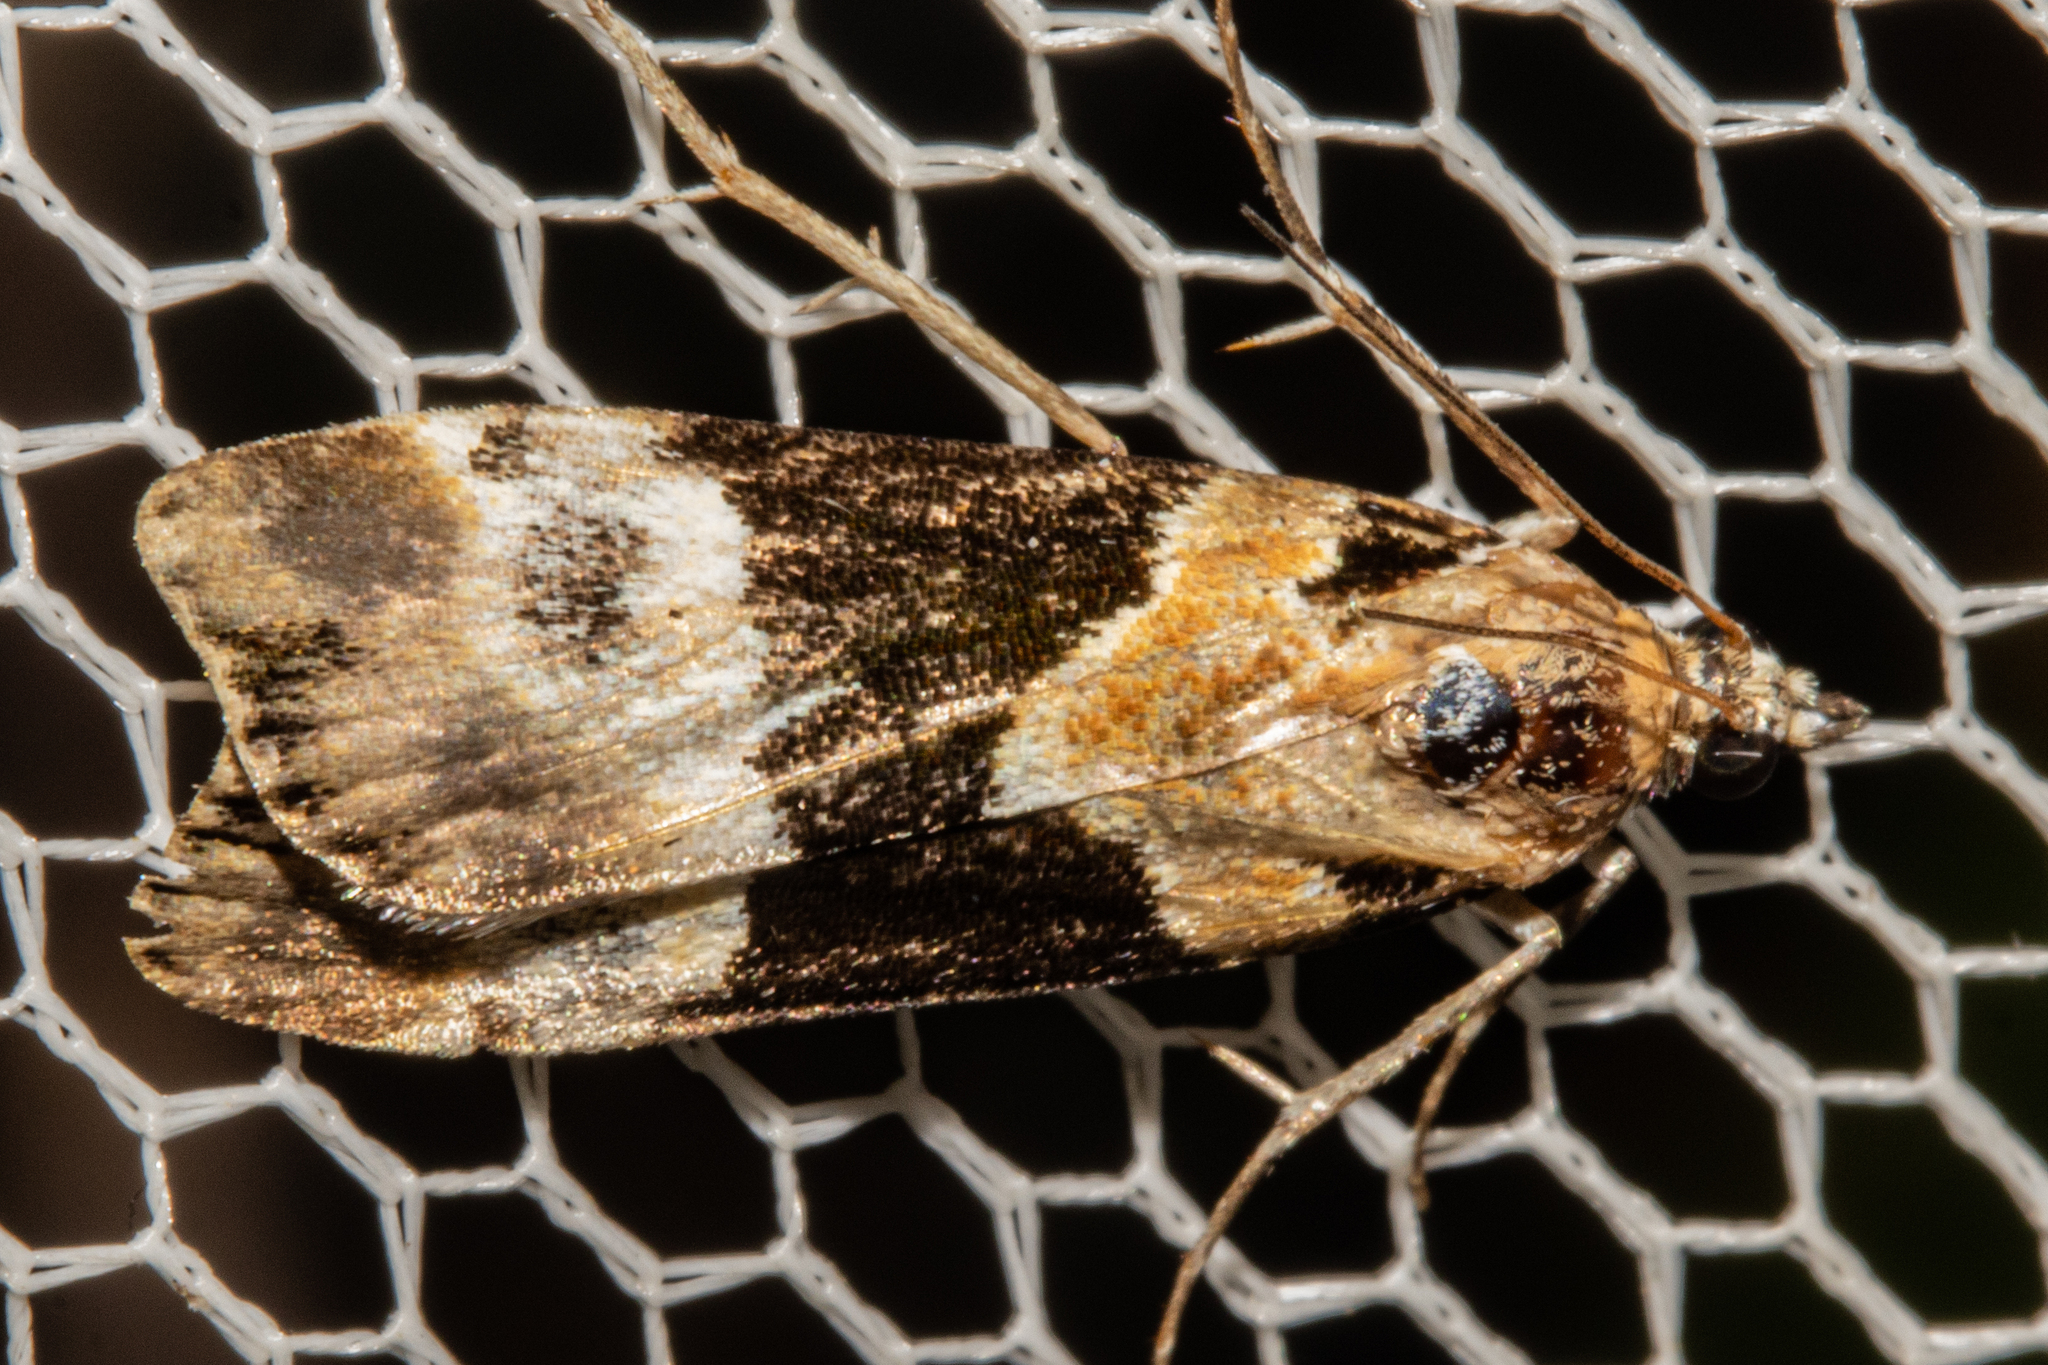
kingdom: Animalia
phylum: Arthropoda
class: Insecta
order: Lepidoptera
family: Crambidae
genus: Eudonia
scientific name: Eudonia aspidota
